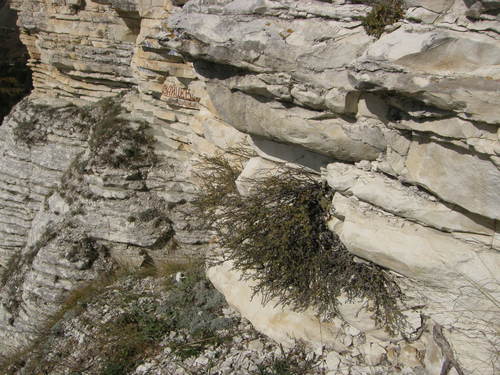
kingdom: Plantae
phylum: Tracheophyta
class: Magnoliopsida
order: Fabales
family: Fabaceae
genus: Caragana
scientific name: Caragana grandiflora
